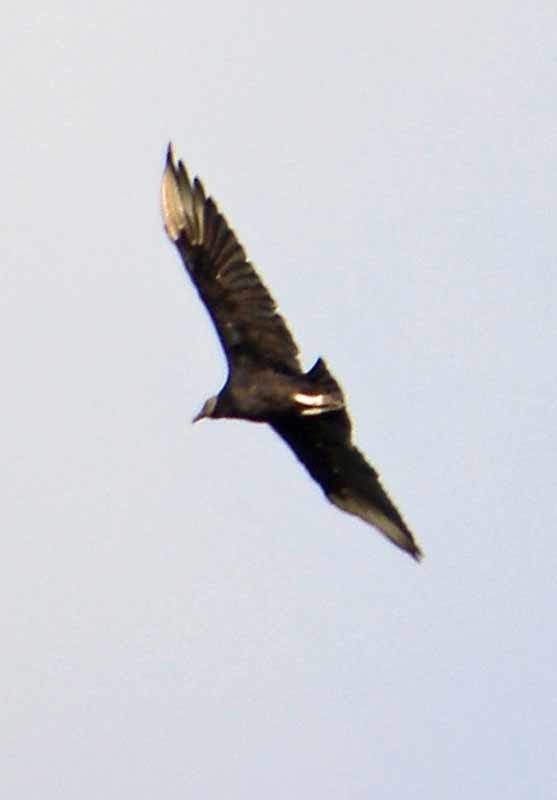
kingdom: Animalia
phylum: Chordata
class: Aves
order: Accipitriformes
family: Cathartidae
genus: Coragyps
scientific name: Coragyps atratus
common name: Black vulture
